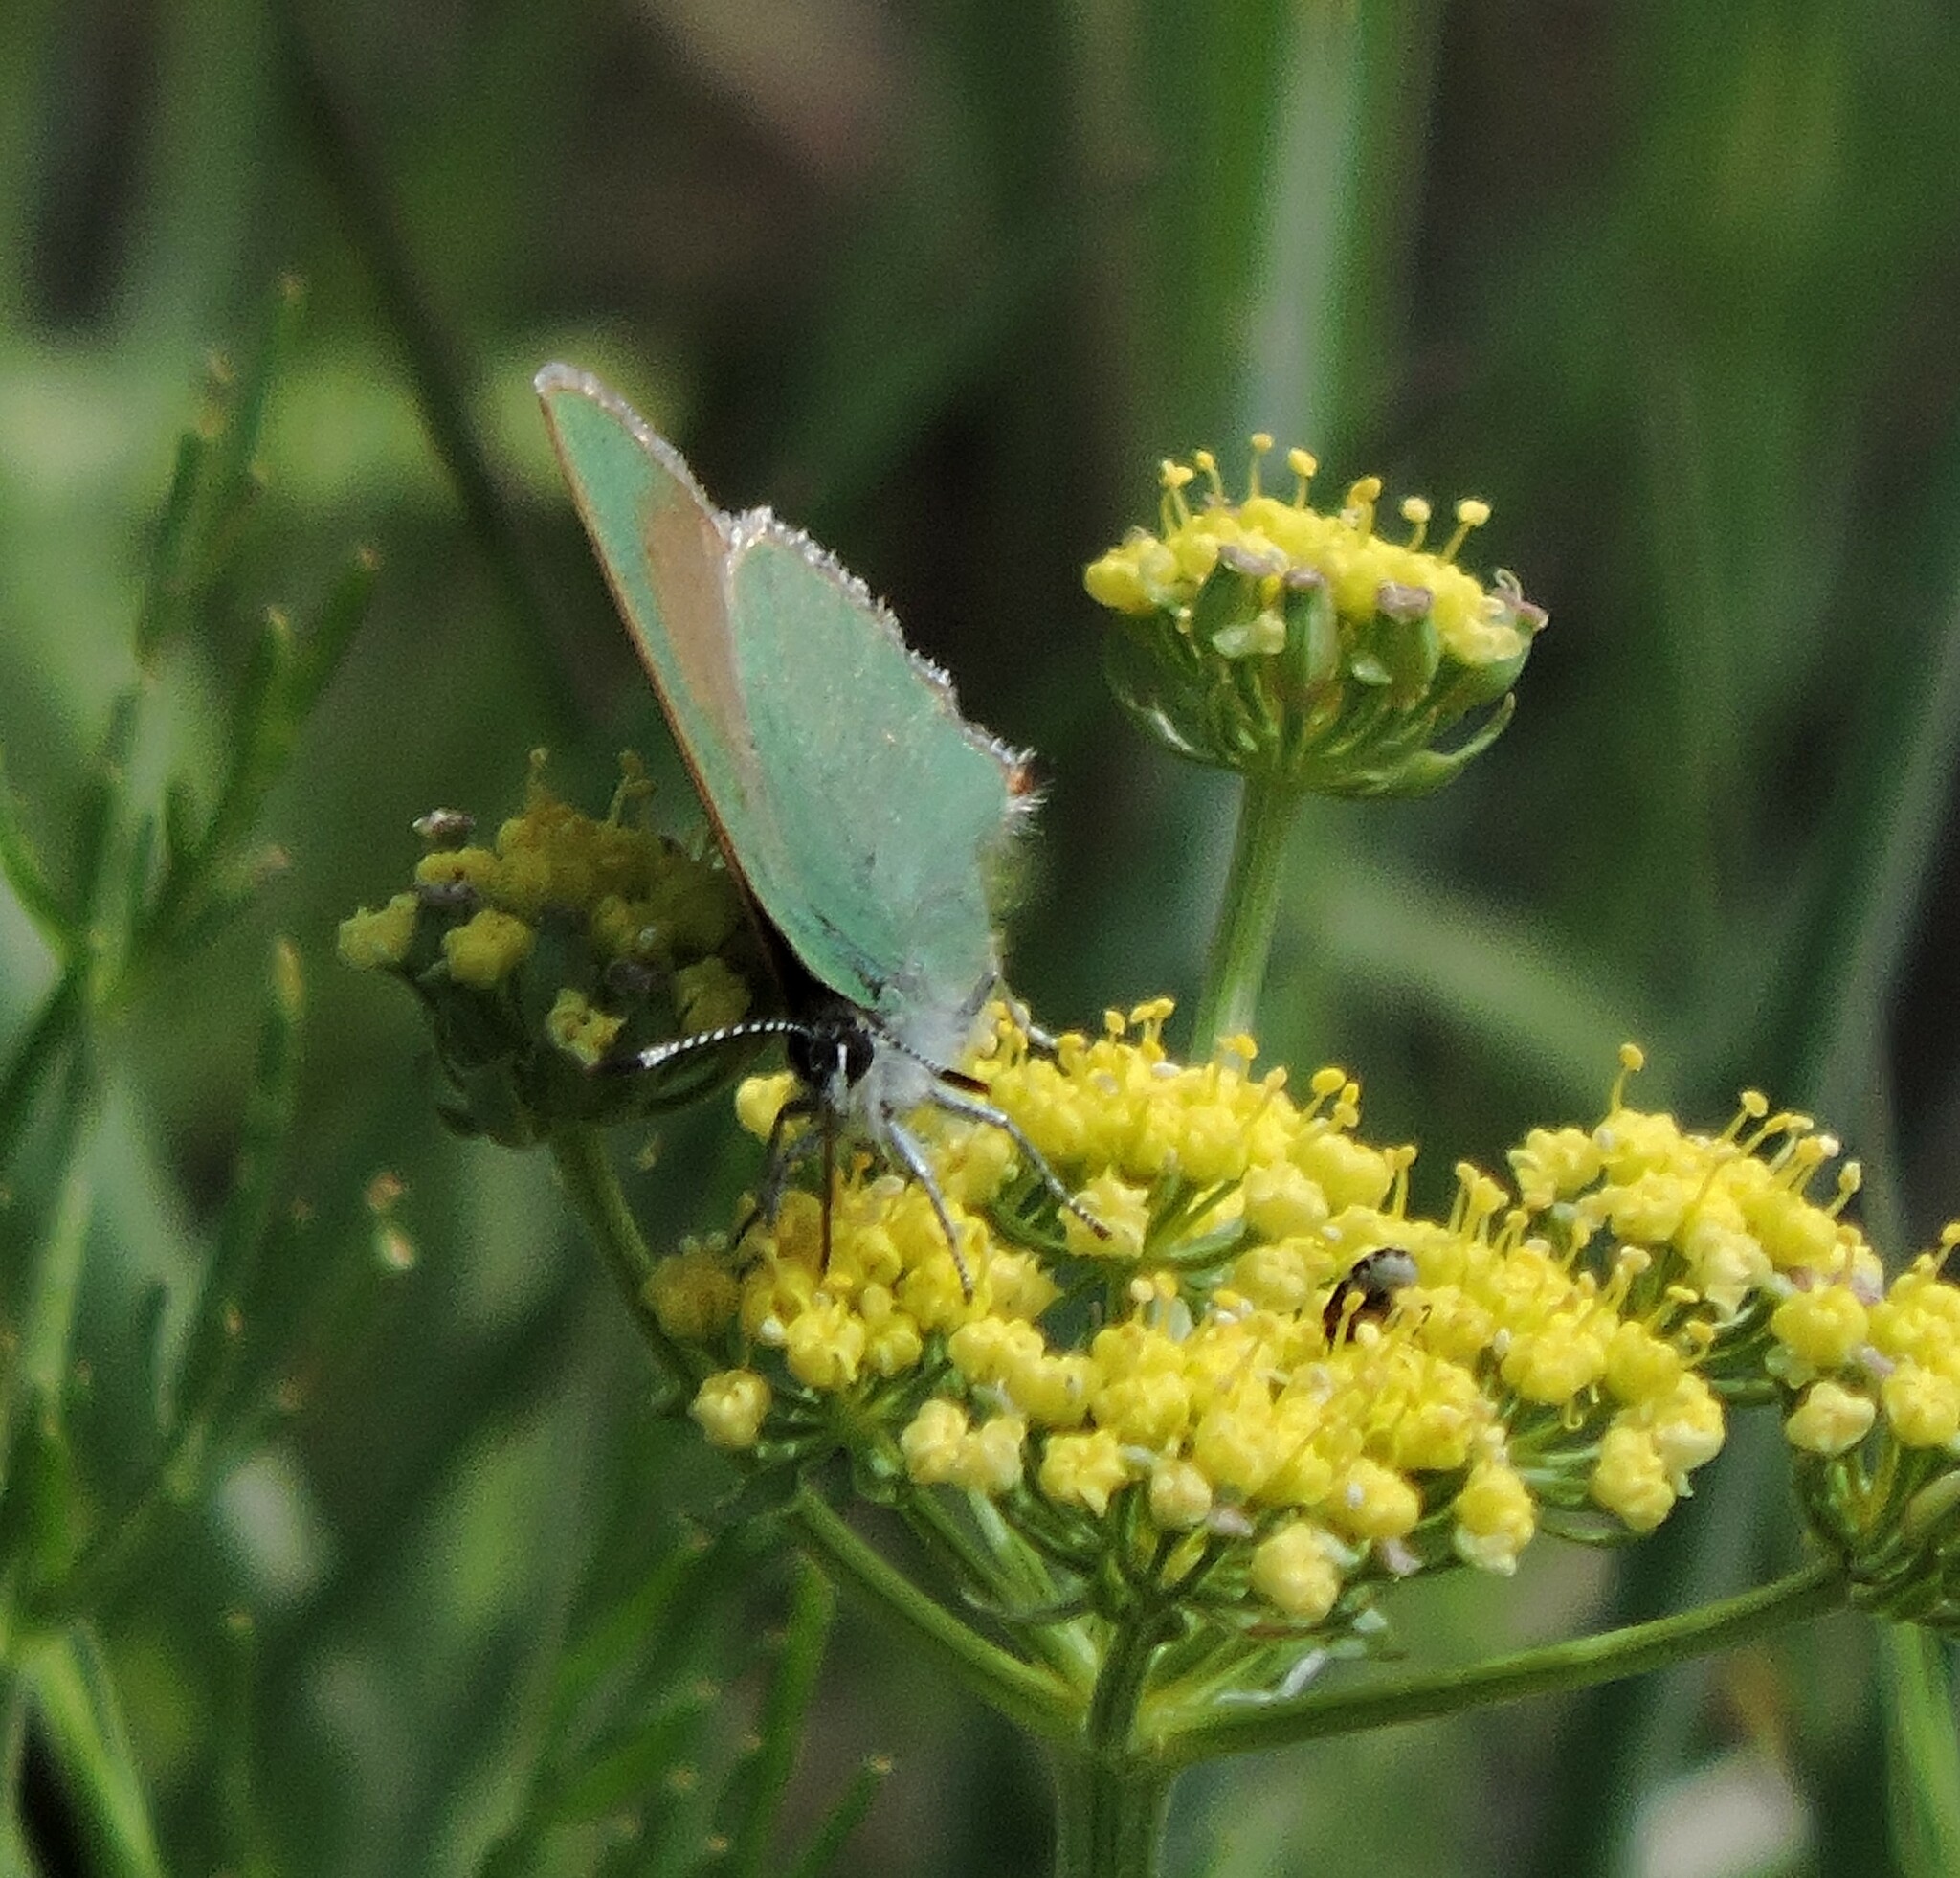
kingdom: Animalia
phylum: Arthropoda
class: Insecta
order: Lepidoptera
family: Lycaenidae
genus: Callophrys
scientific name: Callophrys dumetorum
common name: Bramble hairstreak
